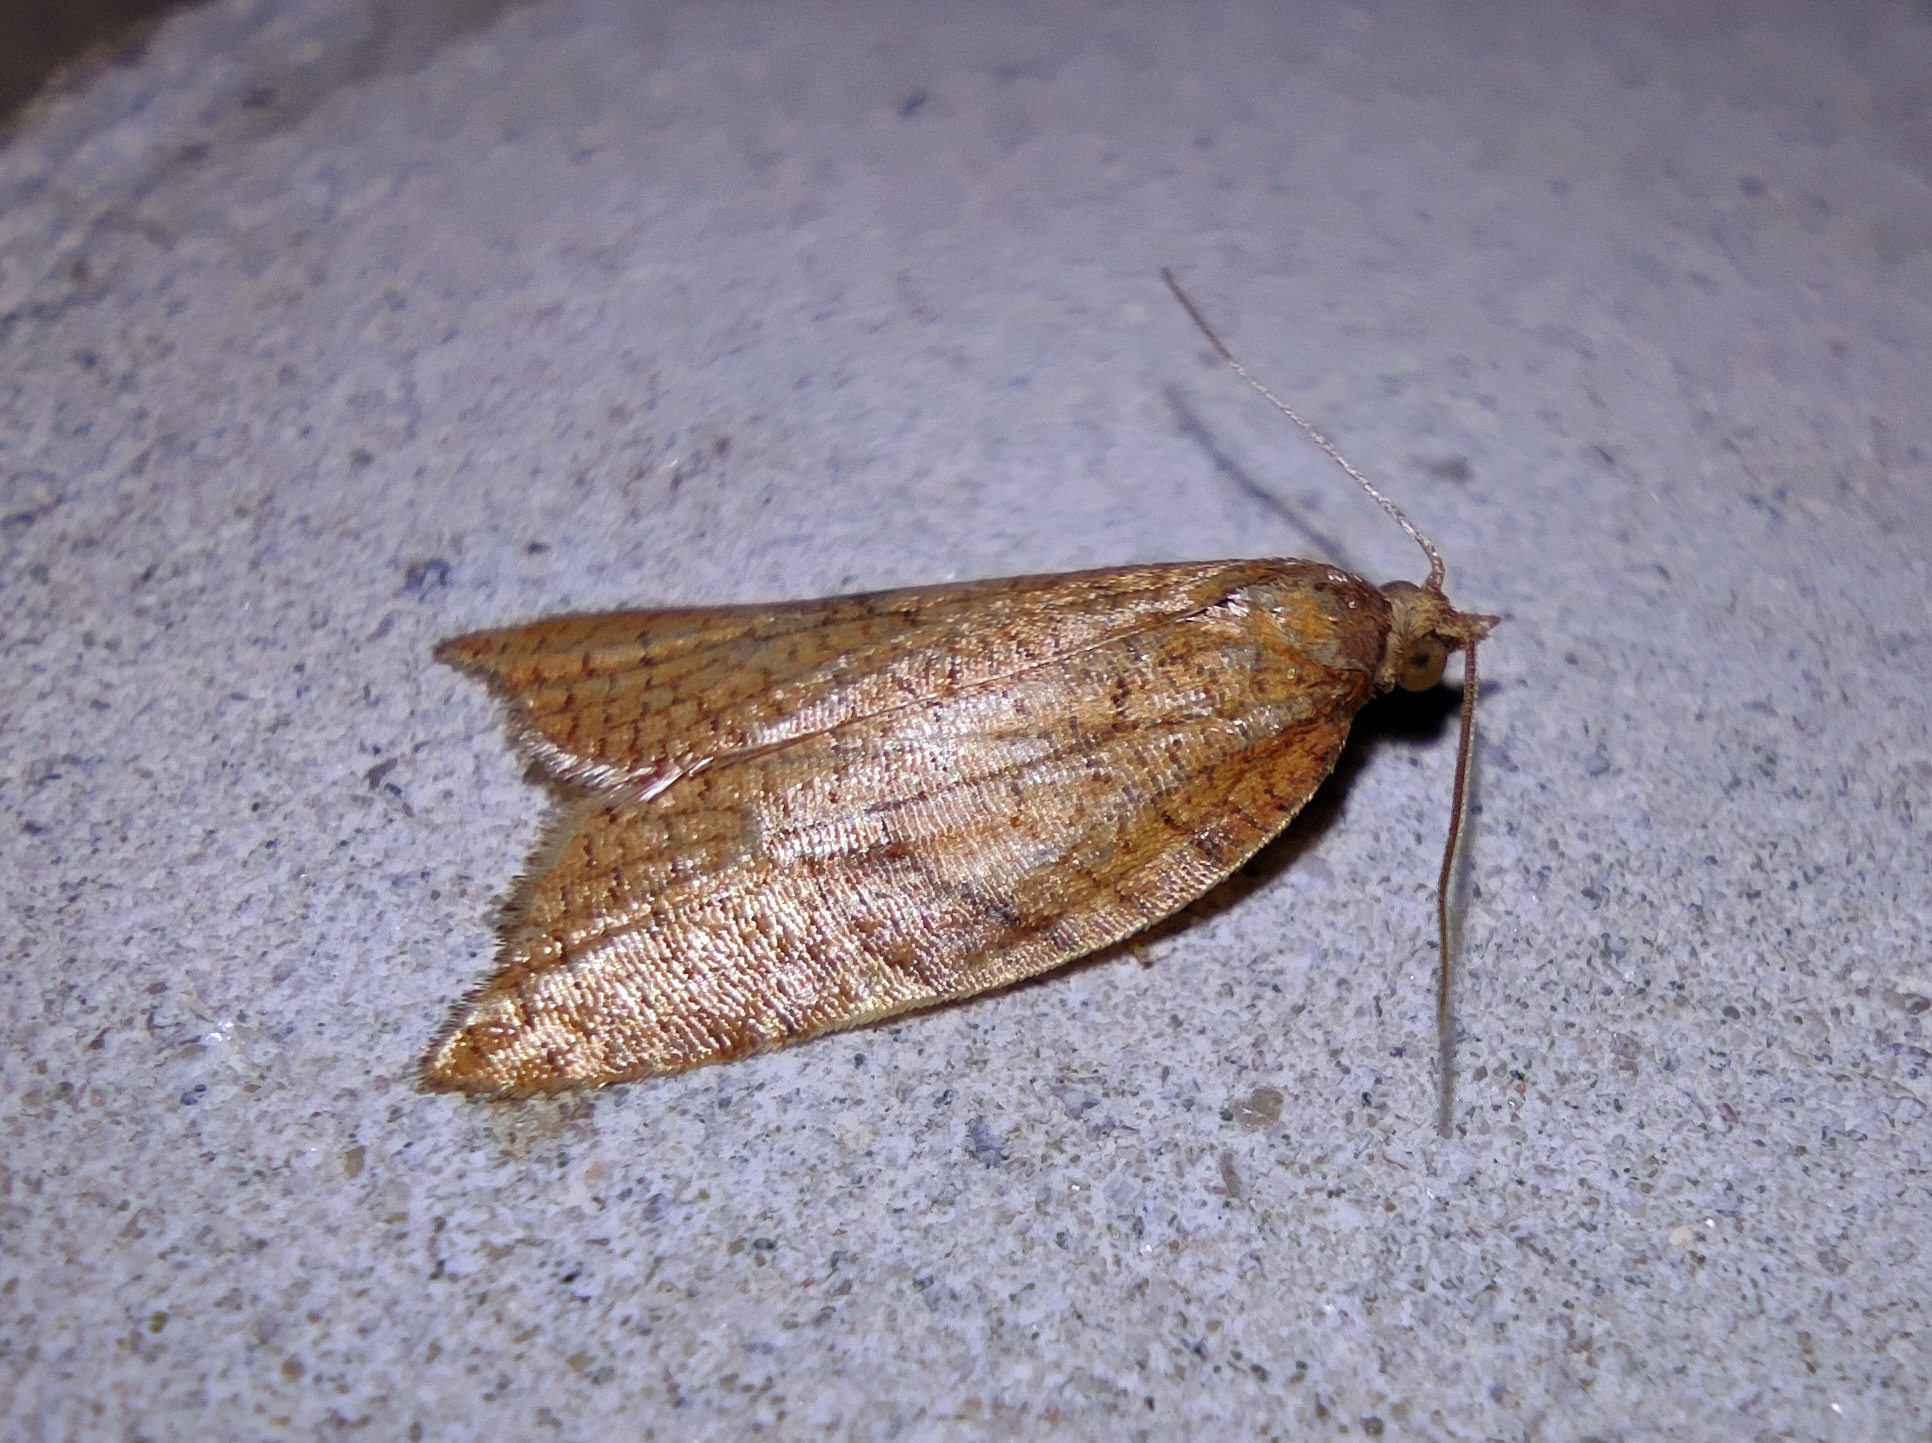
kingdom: Animalia
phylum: Arthropoda
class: Insecta
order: Lepidoptera
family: Tortricidae
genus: Acleris
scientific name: Acleris rhombana
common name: Tortricid moth
